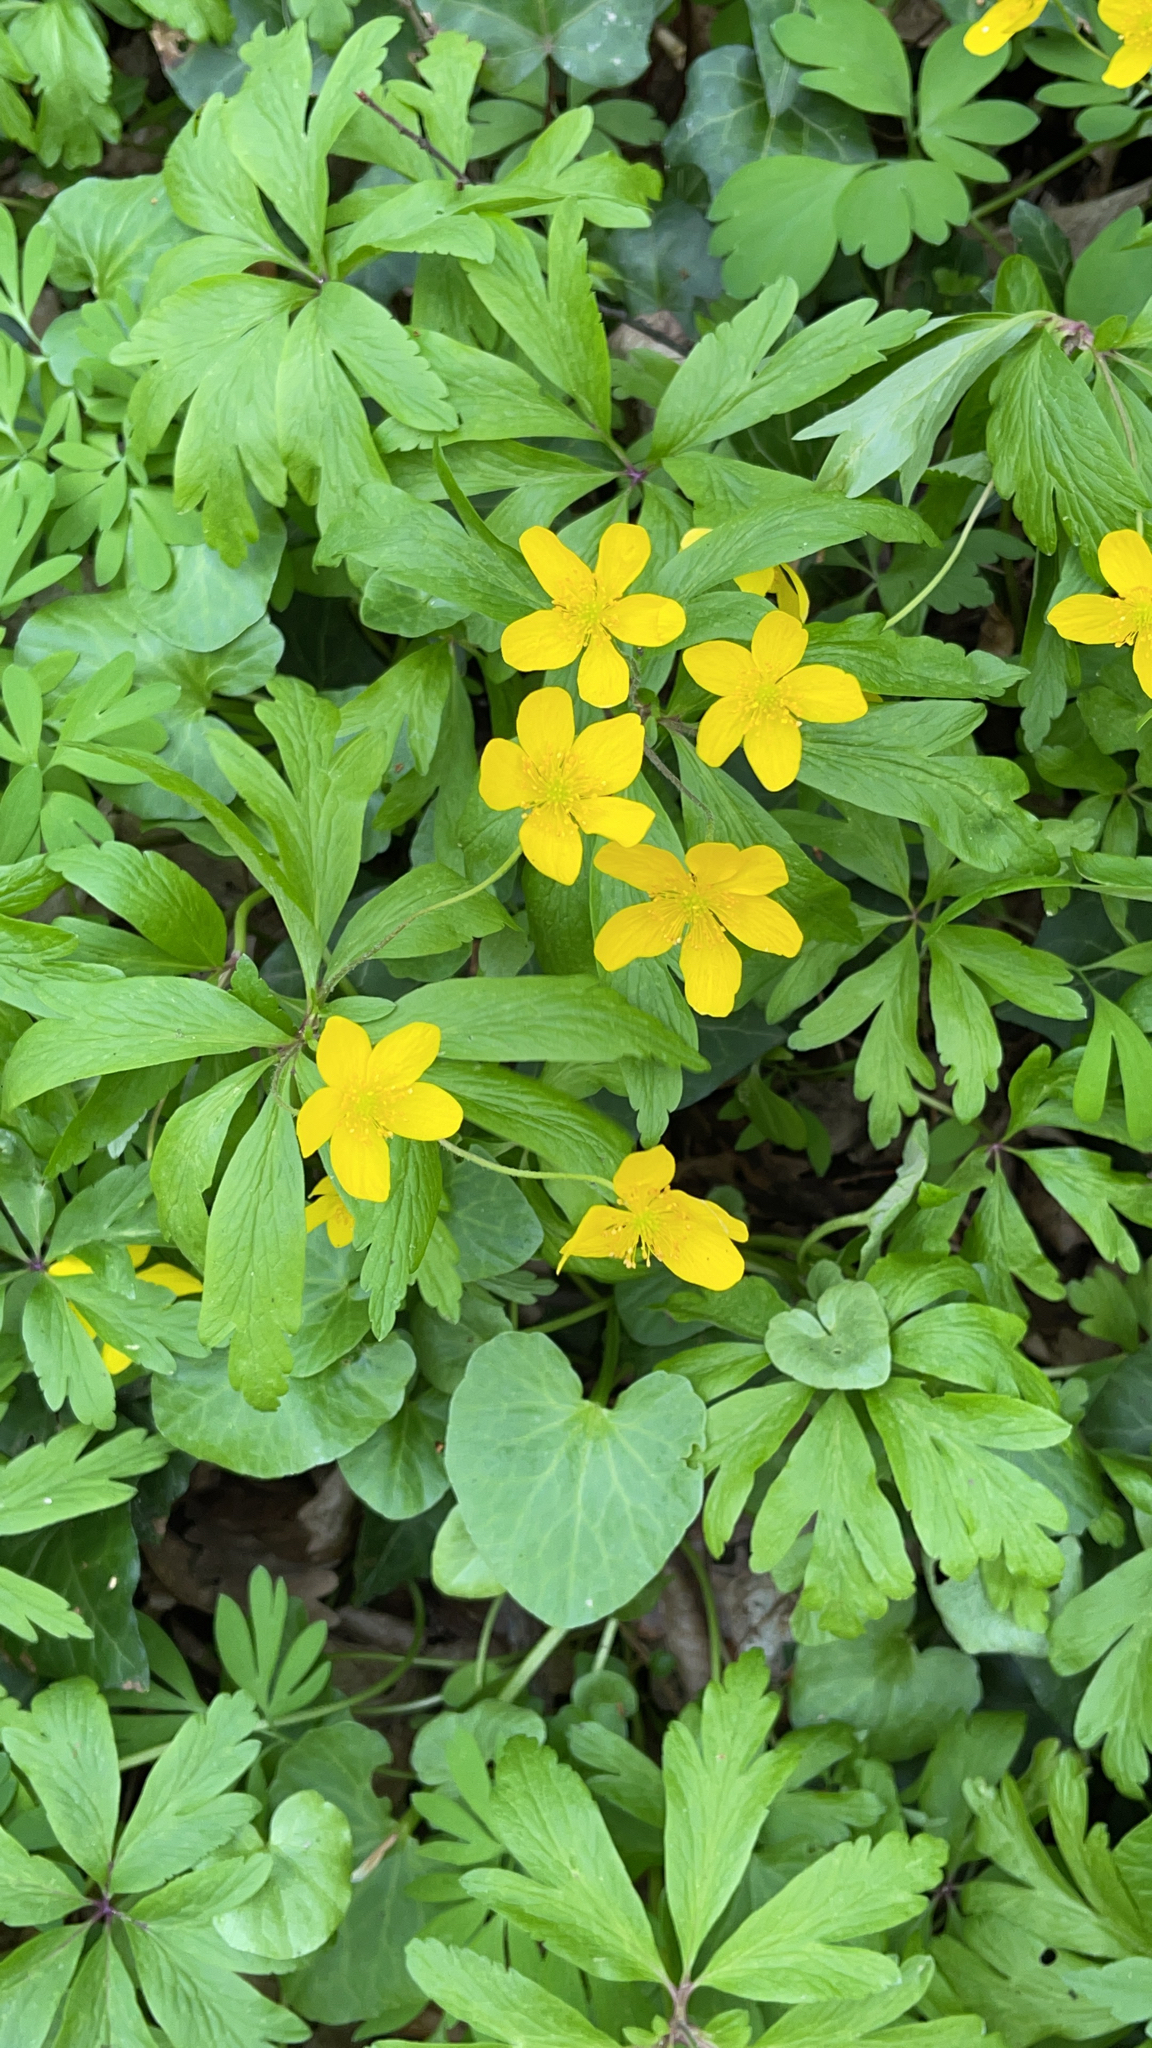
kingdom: Plantae
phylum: Tracheophyta
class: Magnoliopsida
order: Ranunculales
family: Ranunculaceae
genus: Anemone
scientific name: Anemone ranunculoides
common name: Yellow anemone
